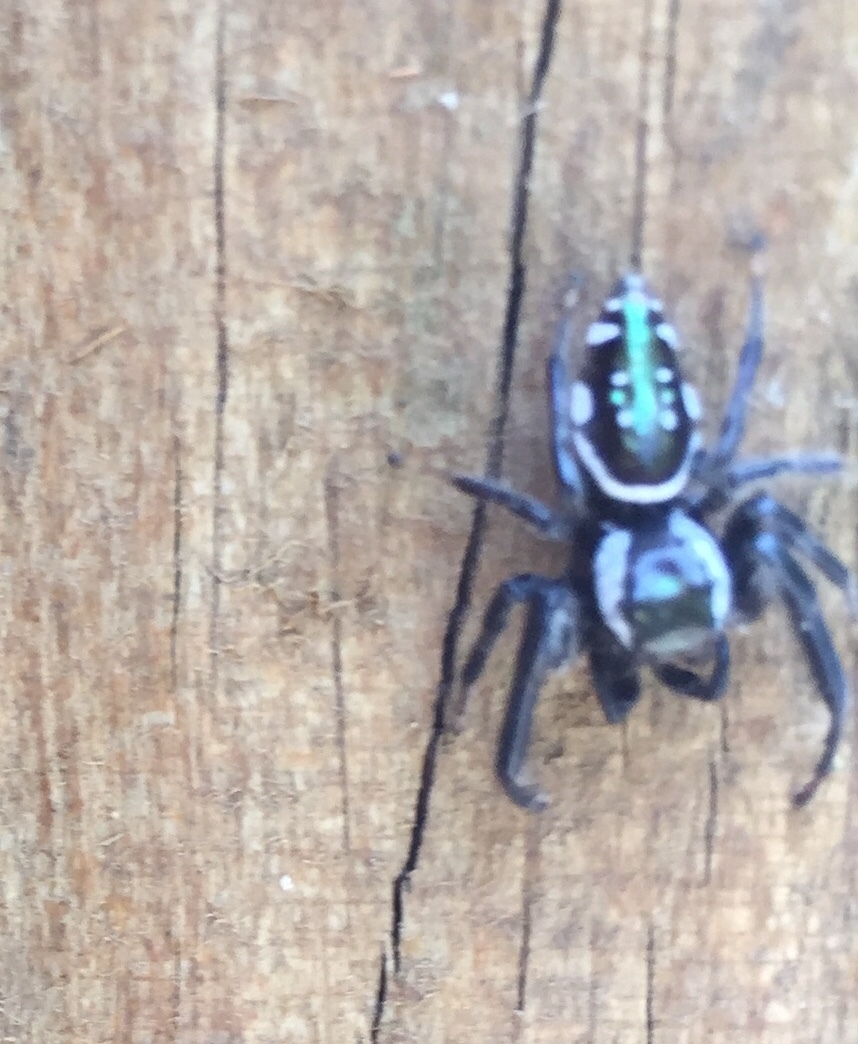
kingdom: Animalia
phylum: Arthropoda
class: Arachnida
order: Araneae
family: Salticidae
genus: Paraphidippus
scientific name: Paraphidippus aurantius
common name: Jumping spiders
